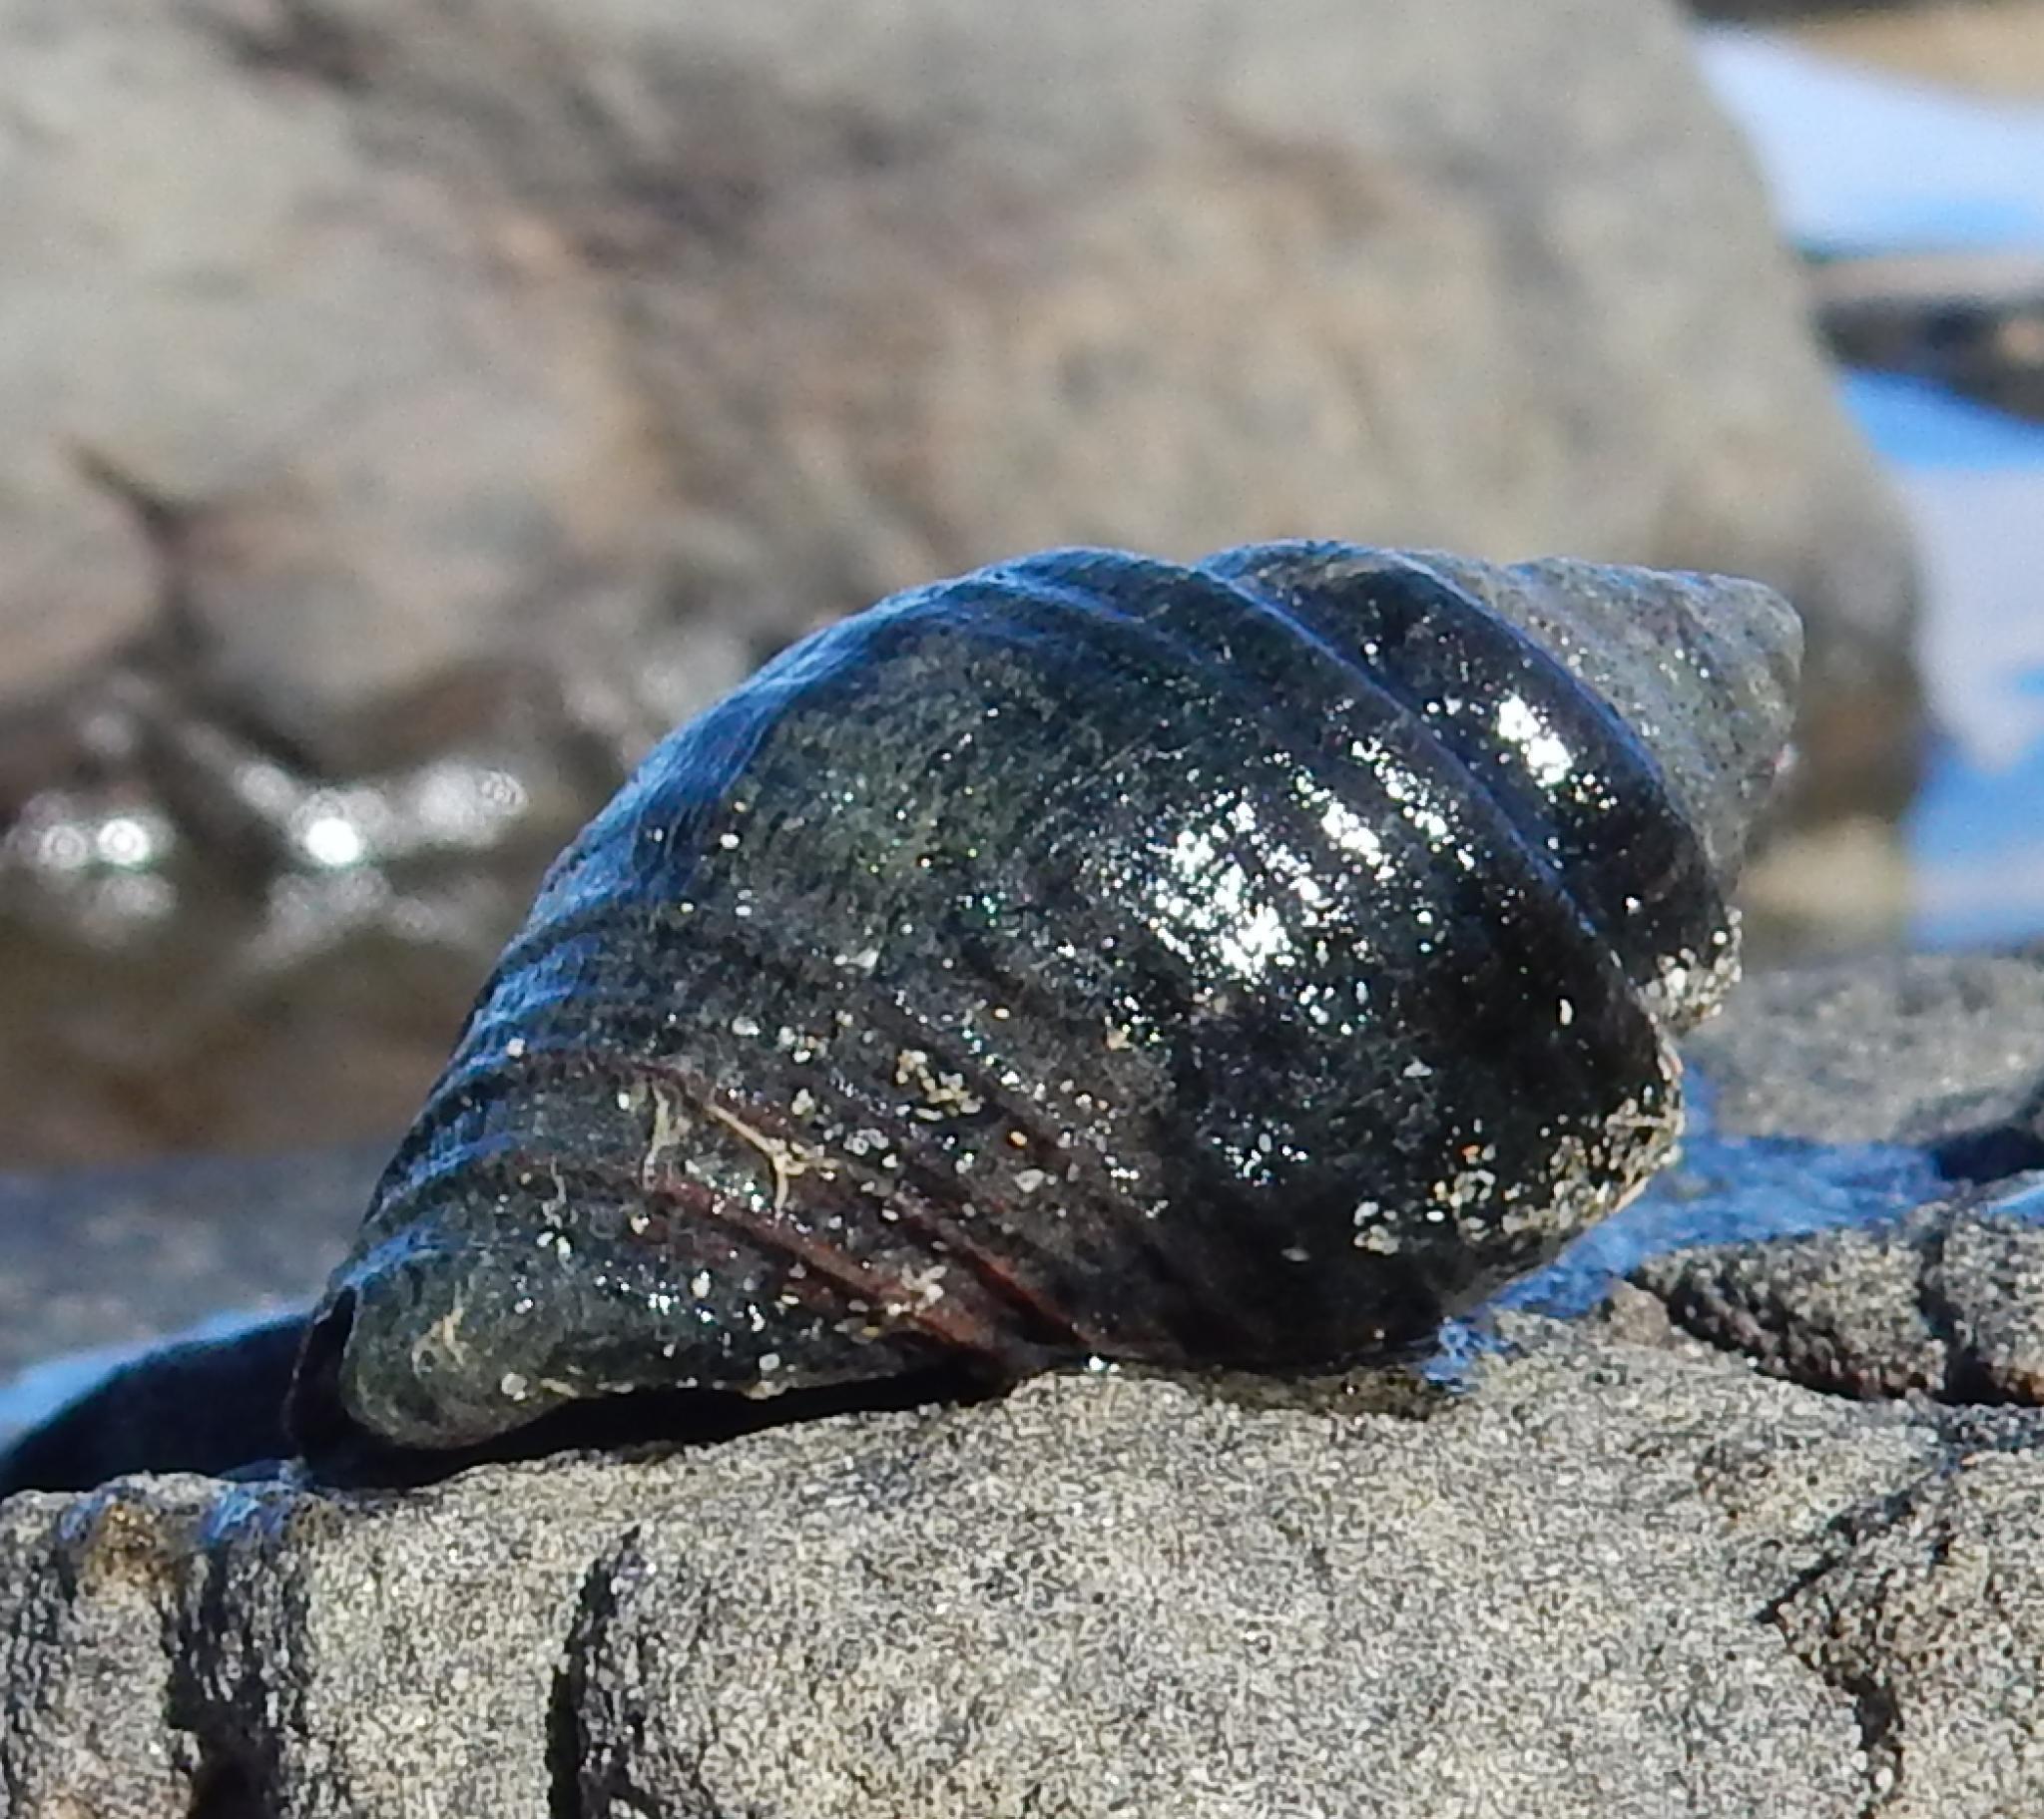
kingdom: Animalia
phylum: Mollusca
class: Gastropoda
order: Neogastropoda
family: Buccinidae
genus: Burnupena
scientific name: Burnupena lagenaria
